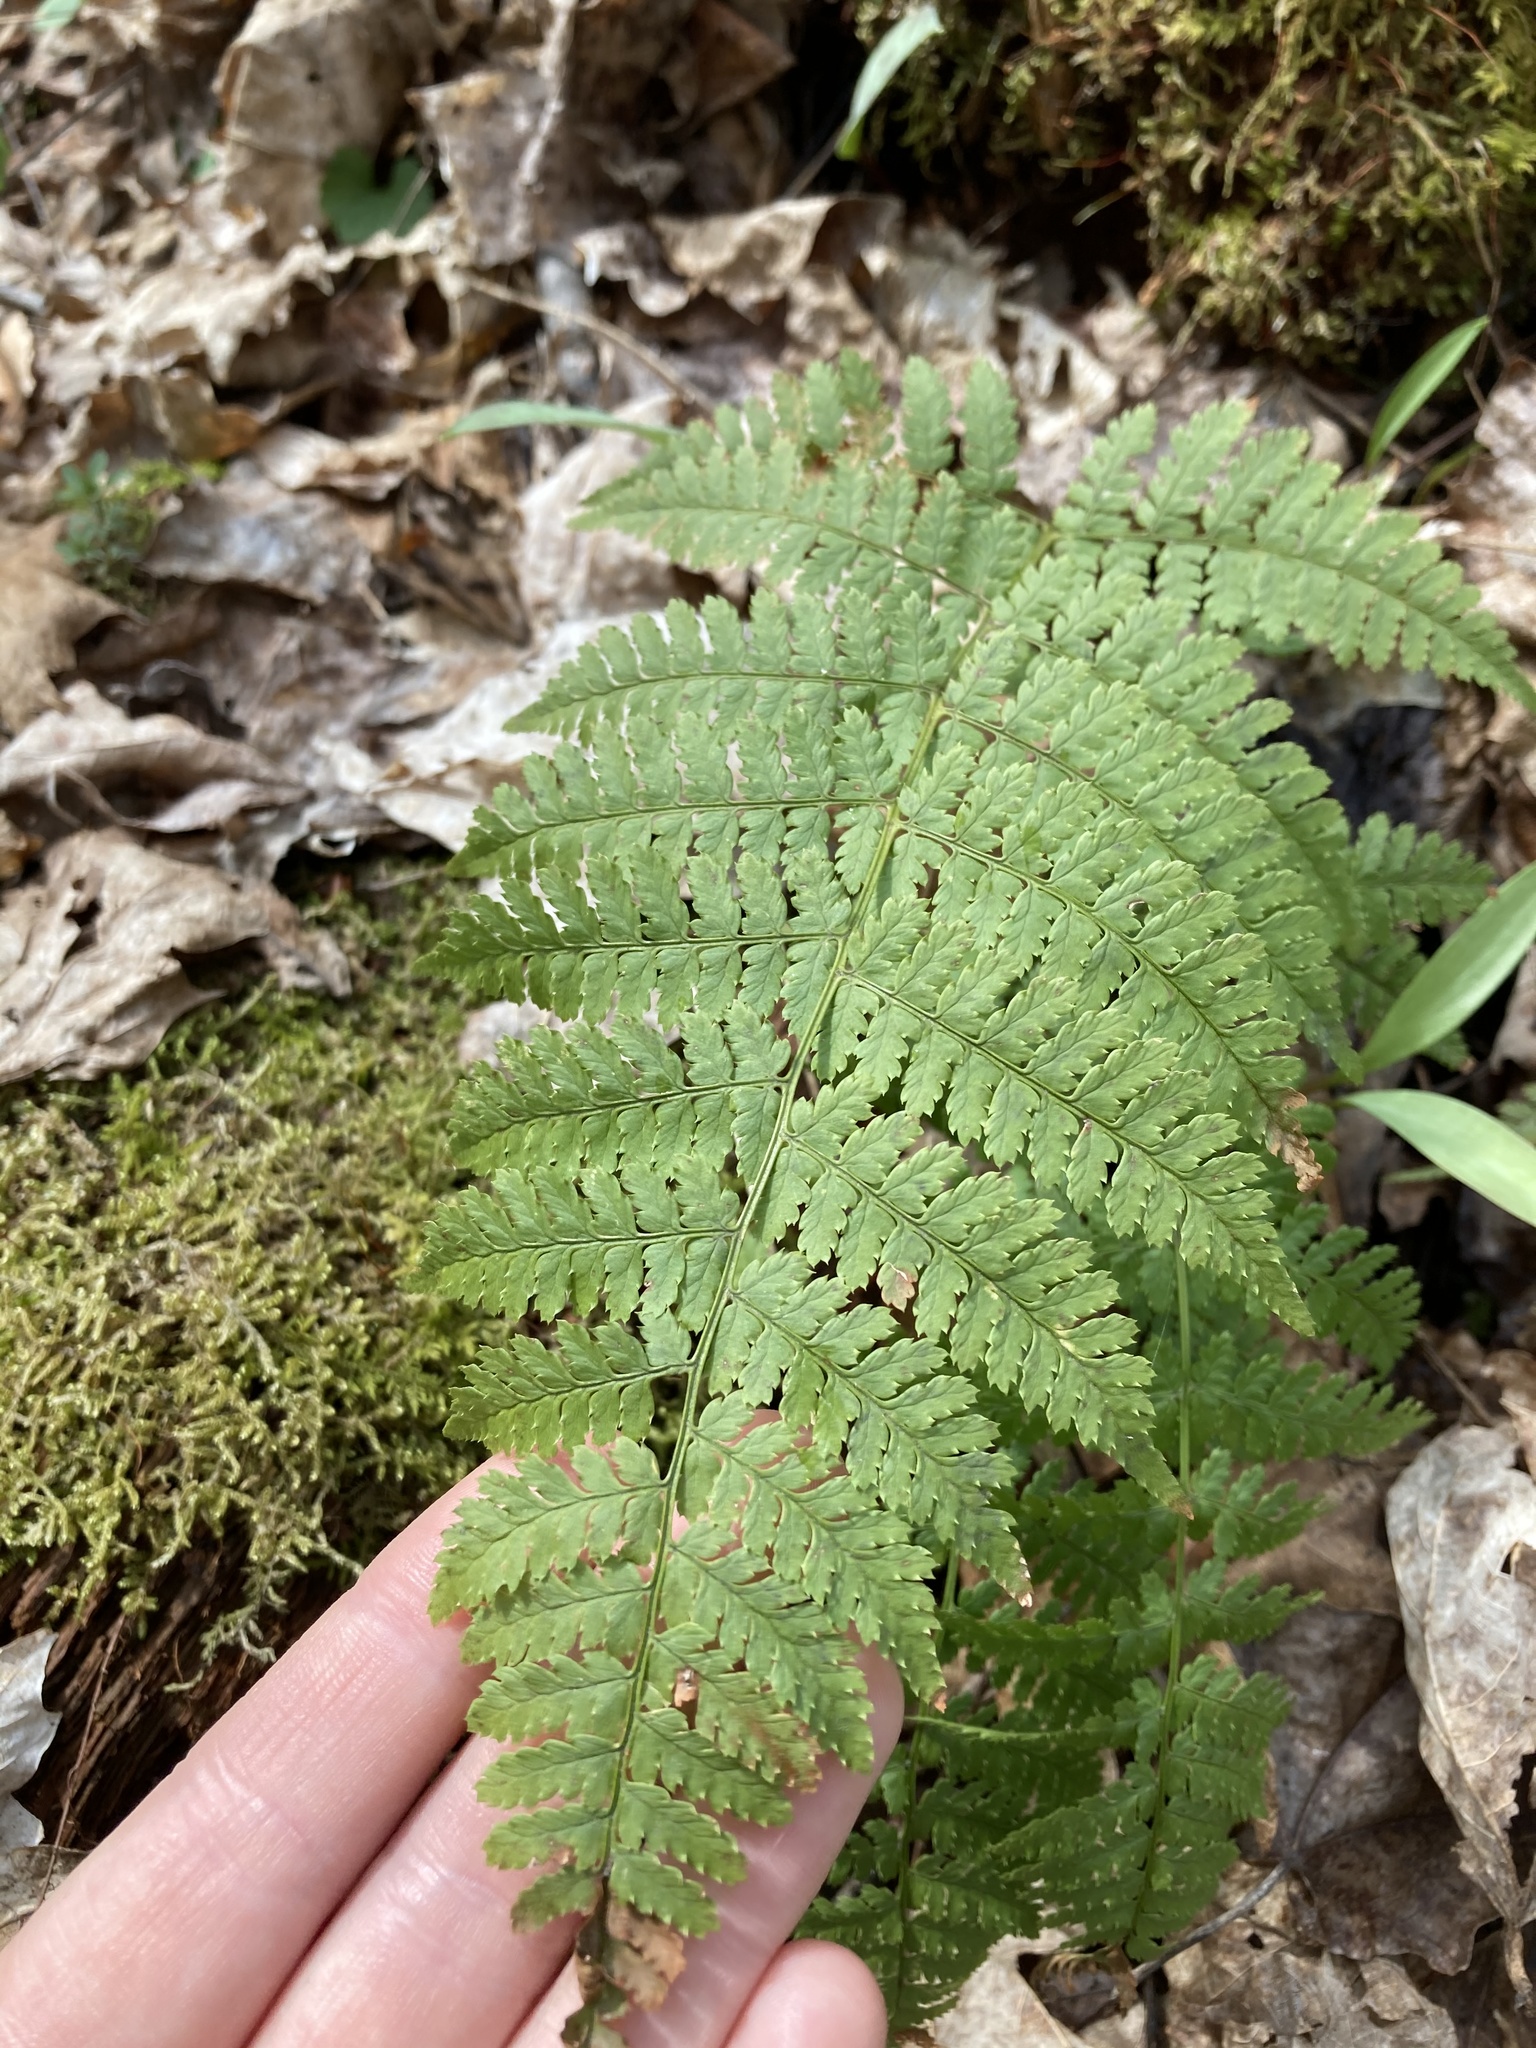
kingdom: Plantae
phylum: Tracheophyta
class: Polypodiopsida
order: Polypodiales
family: Dryopteridaceae
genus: Dryopteris
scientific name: Dryopteris intermedia
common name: Evergreen wood fern
